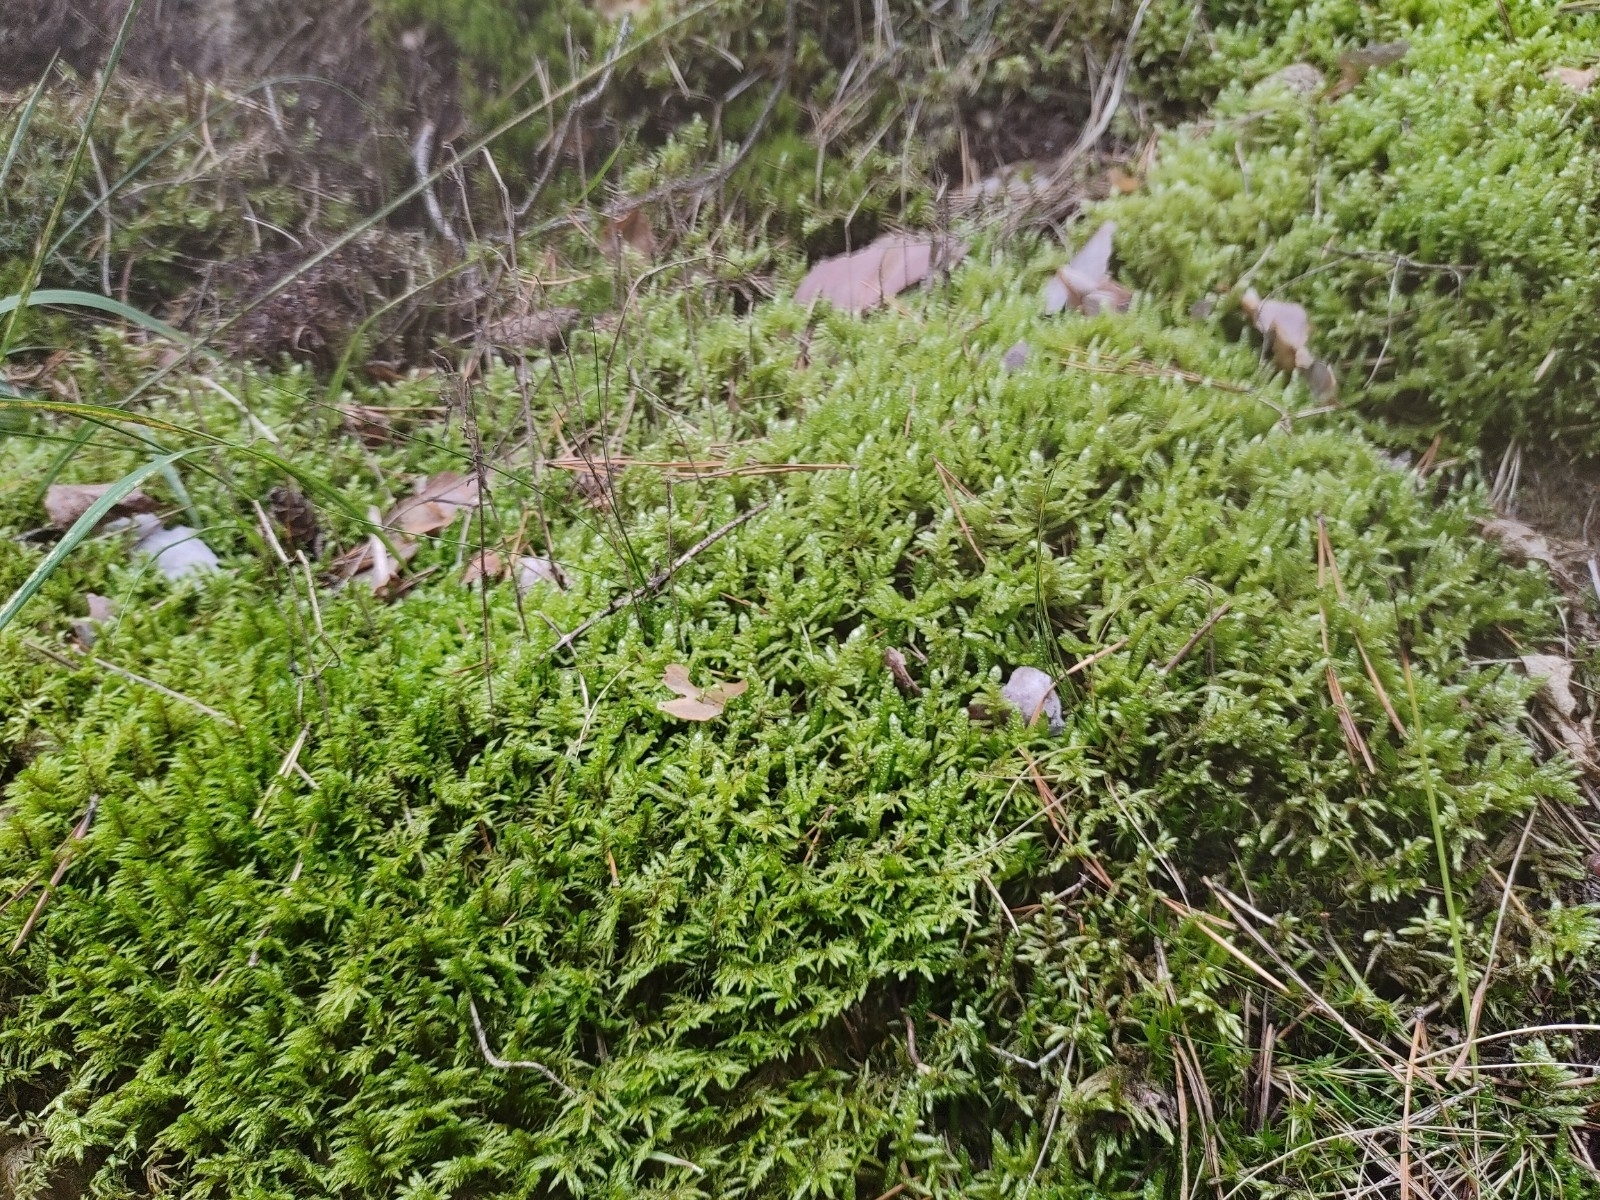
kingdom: Plantae
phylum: Bryophyta
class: Bryopsida
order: Hypnales
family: Hylocomiaceae
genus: Pleurozium
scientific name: Pleurozium schreberi
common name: Red-stemmed feather moss
